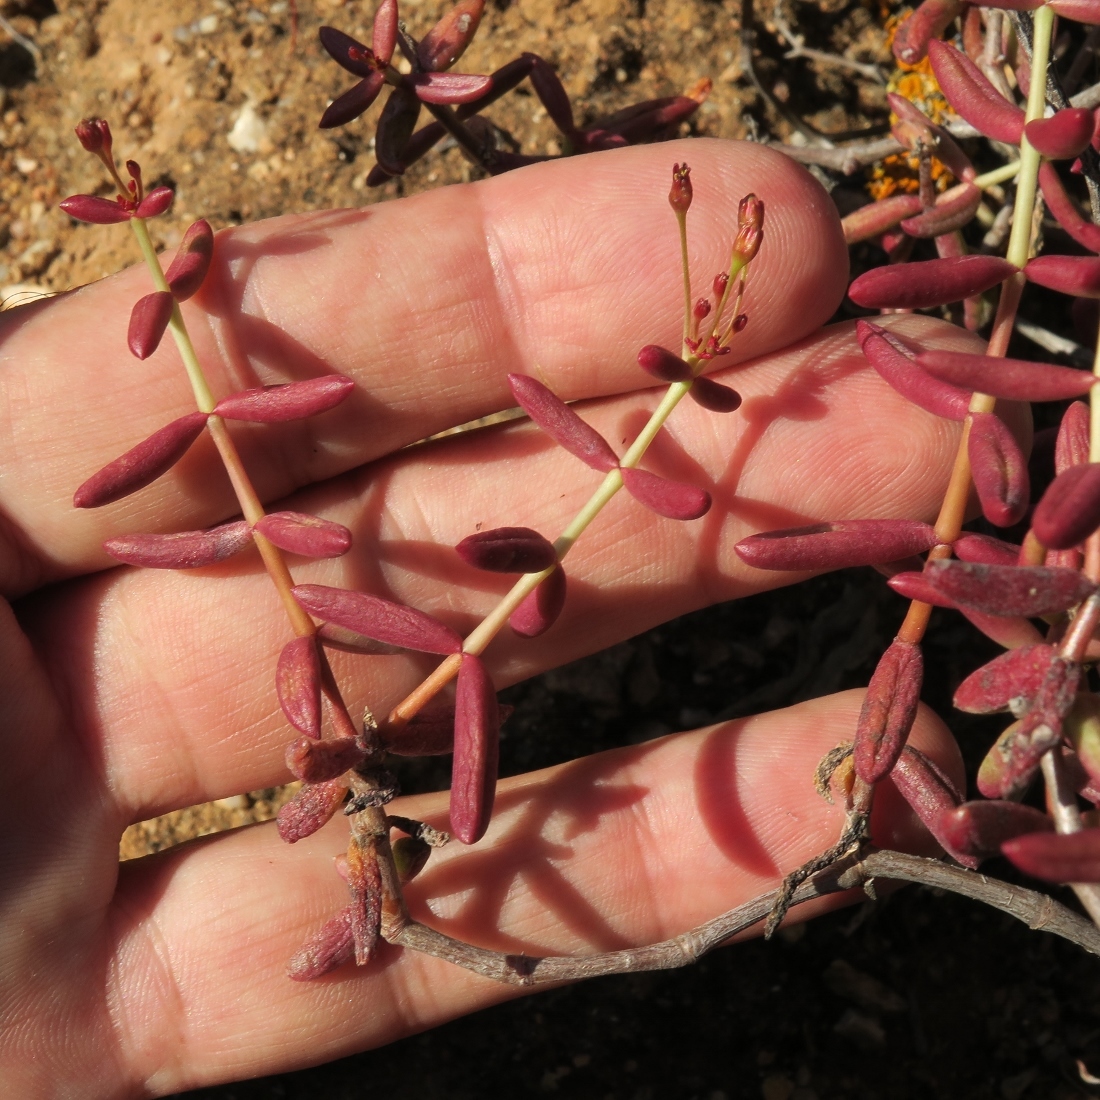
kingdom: Plantae
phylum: Tracheophyta
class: Magnoliopsida
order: Saxifragales
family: Crassulaceae
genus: Crassula
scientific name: Crassula expansa
